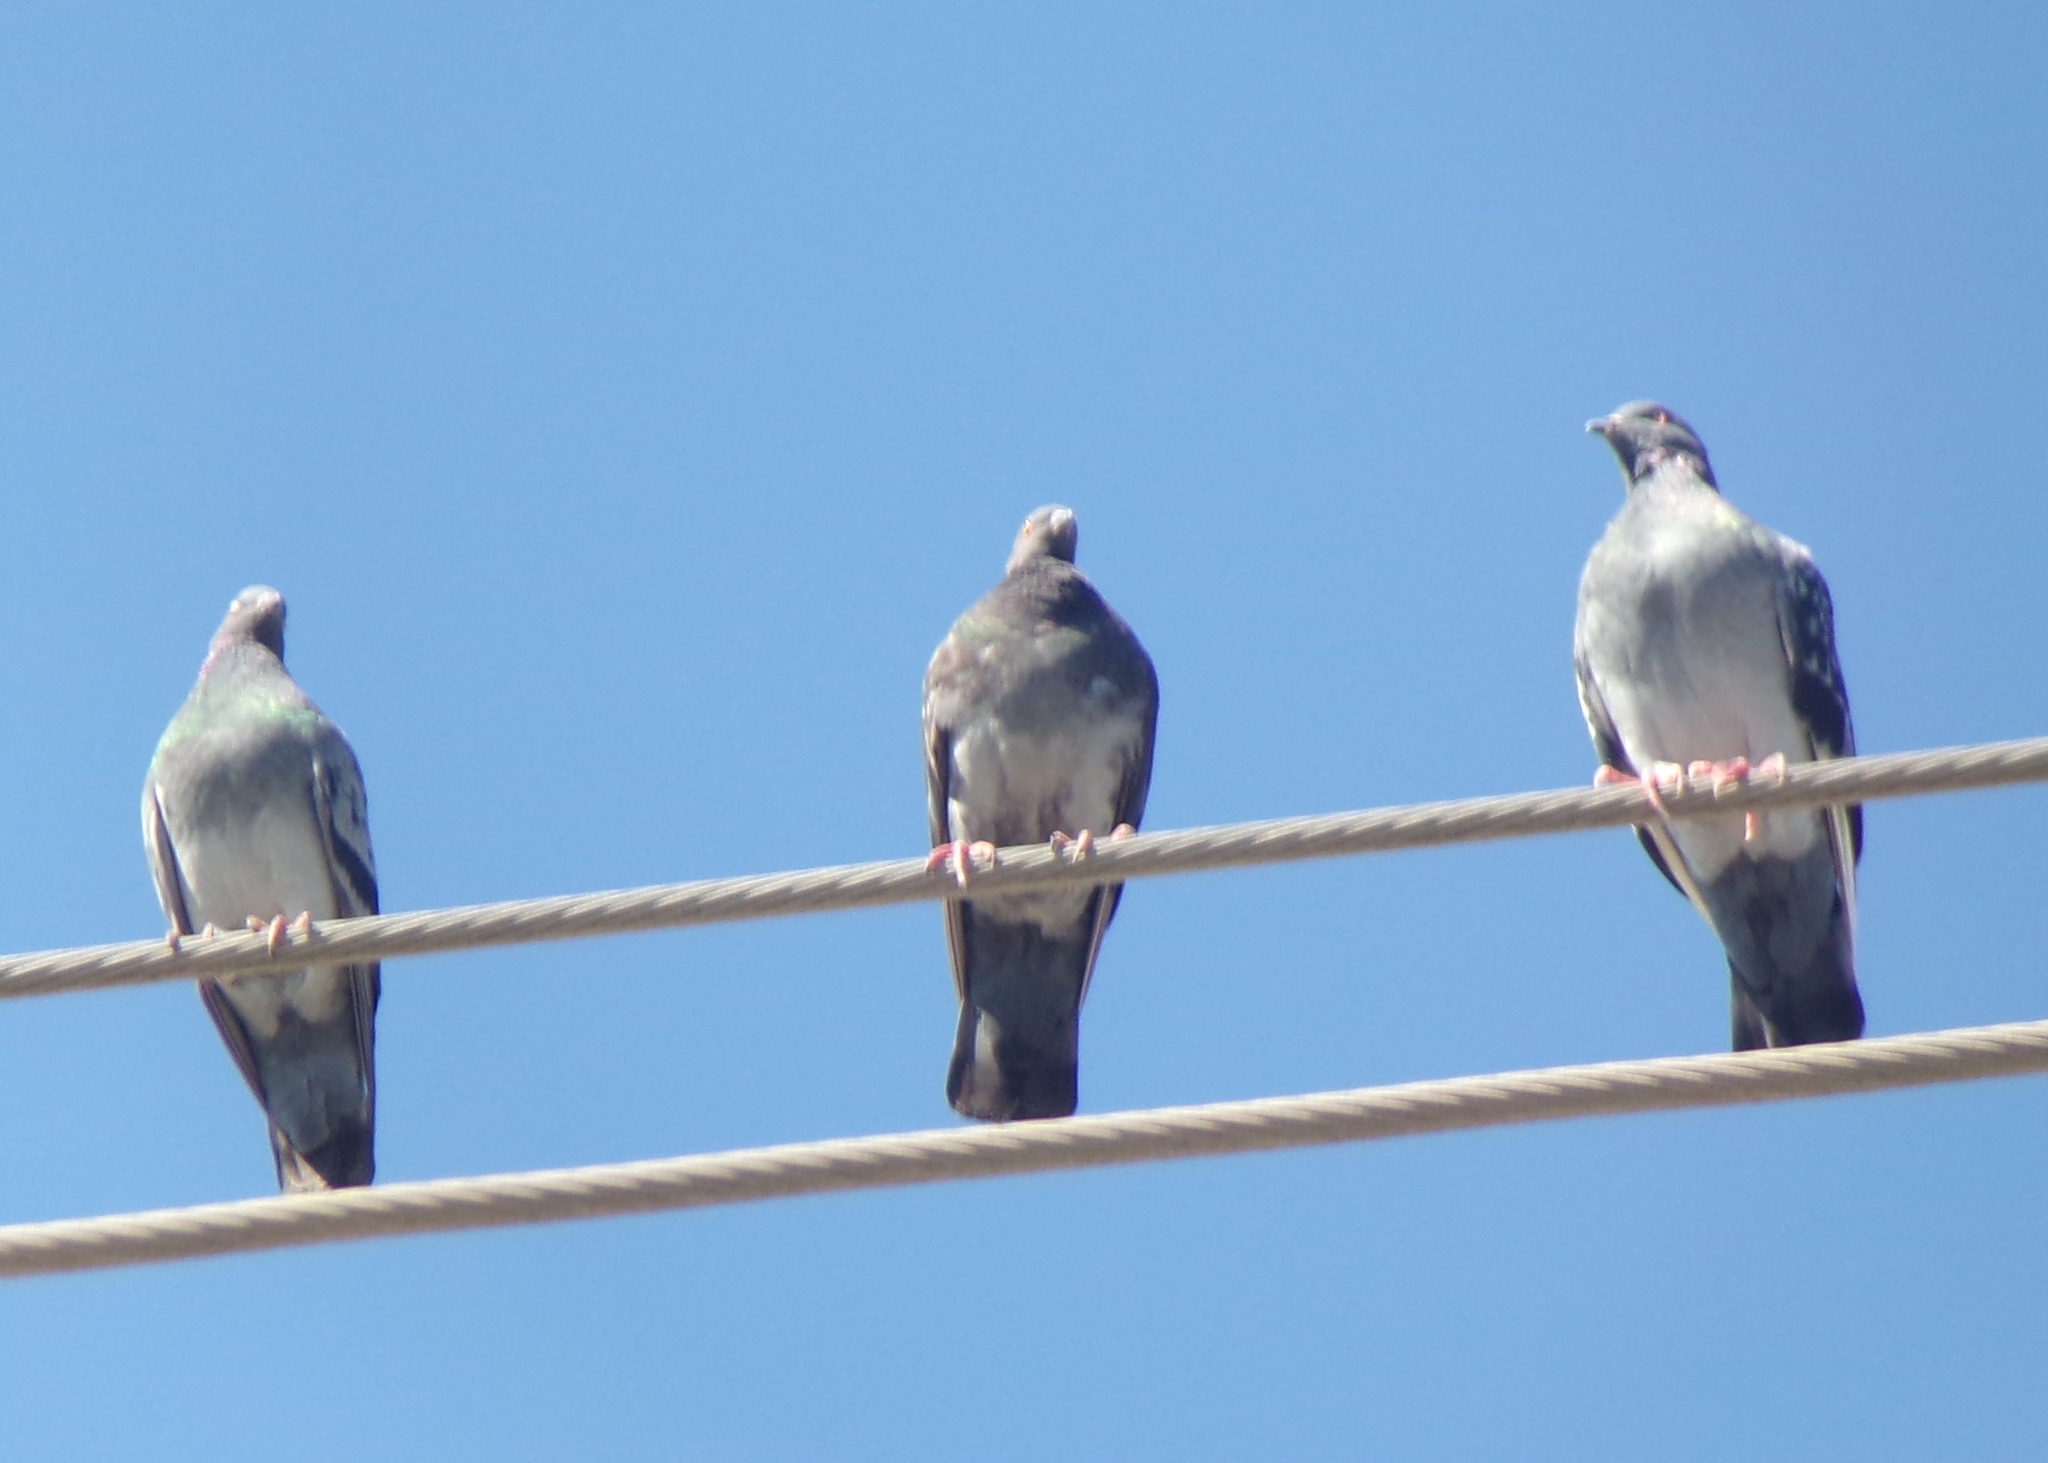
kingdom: Animalia
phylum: Chordata
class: Aves
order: Columbiformes
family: Columbidae
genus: Columba
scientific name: Columba livia
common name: Rock pigeon
